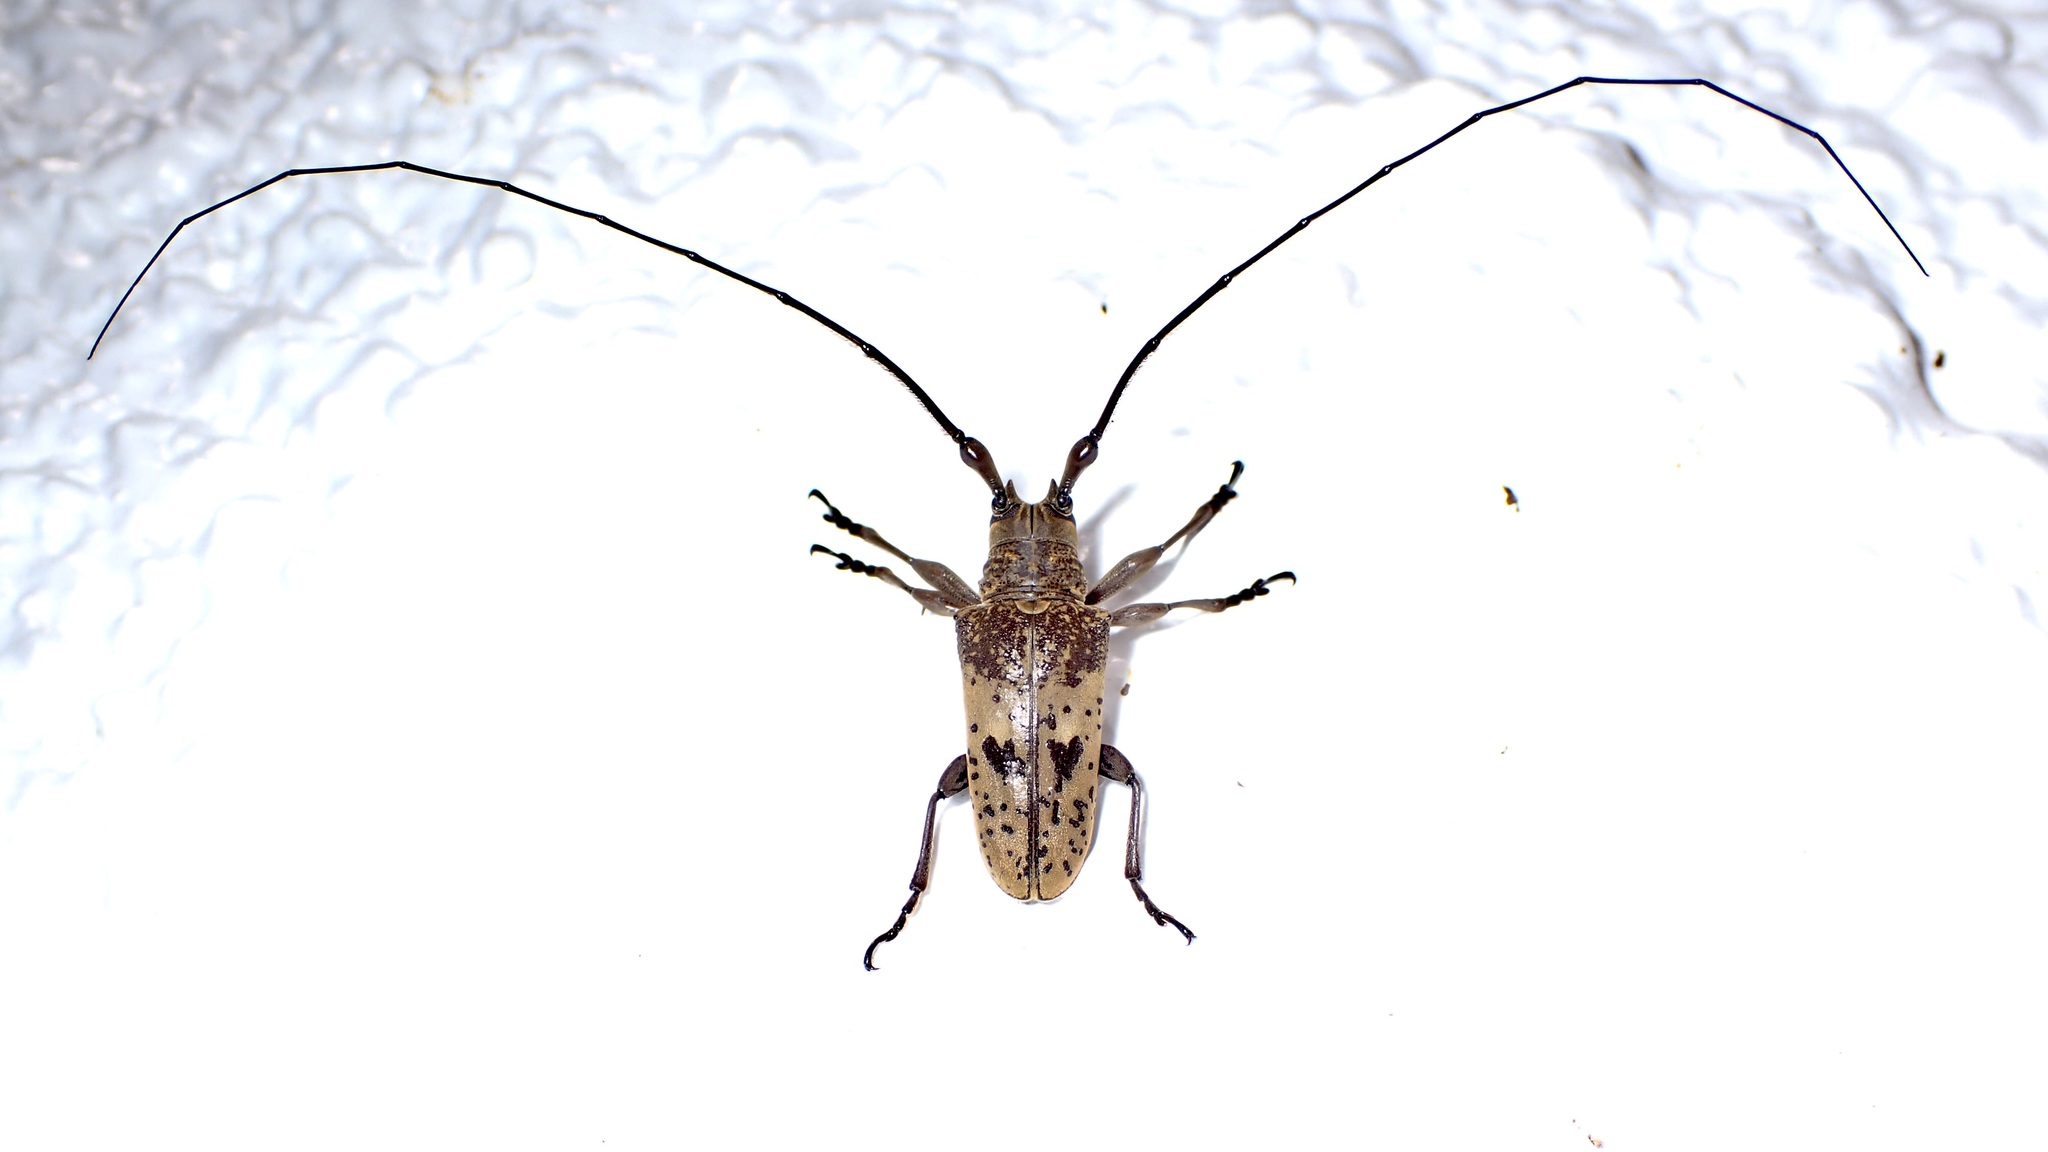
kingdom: Animalia
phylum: Arthropoda
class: Insecta
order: Coleoptera
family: Cerambycidae
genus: Tybalmia
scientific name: Tybalmia caeca
